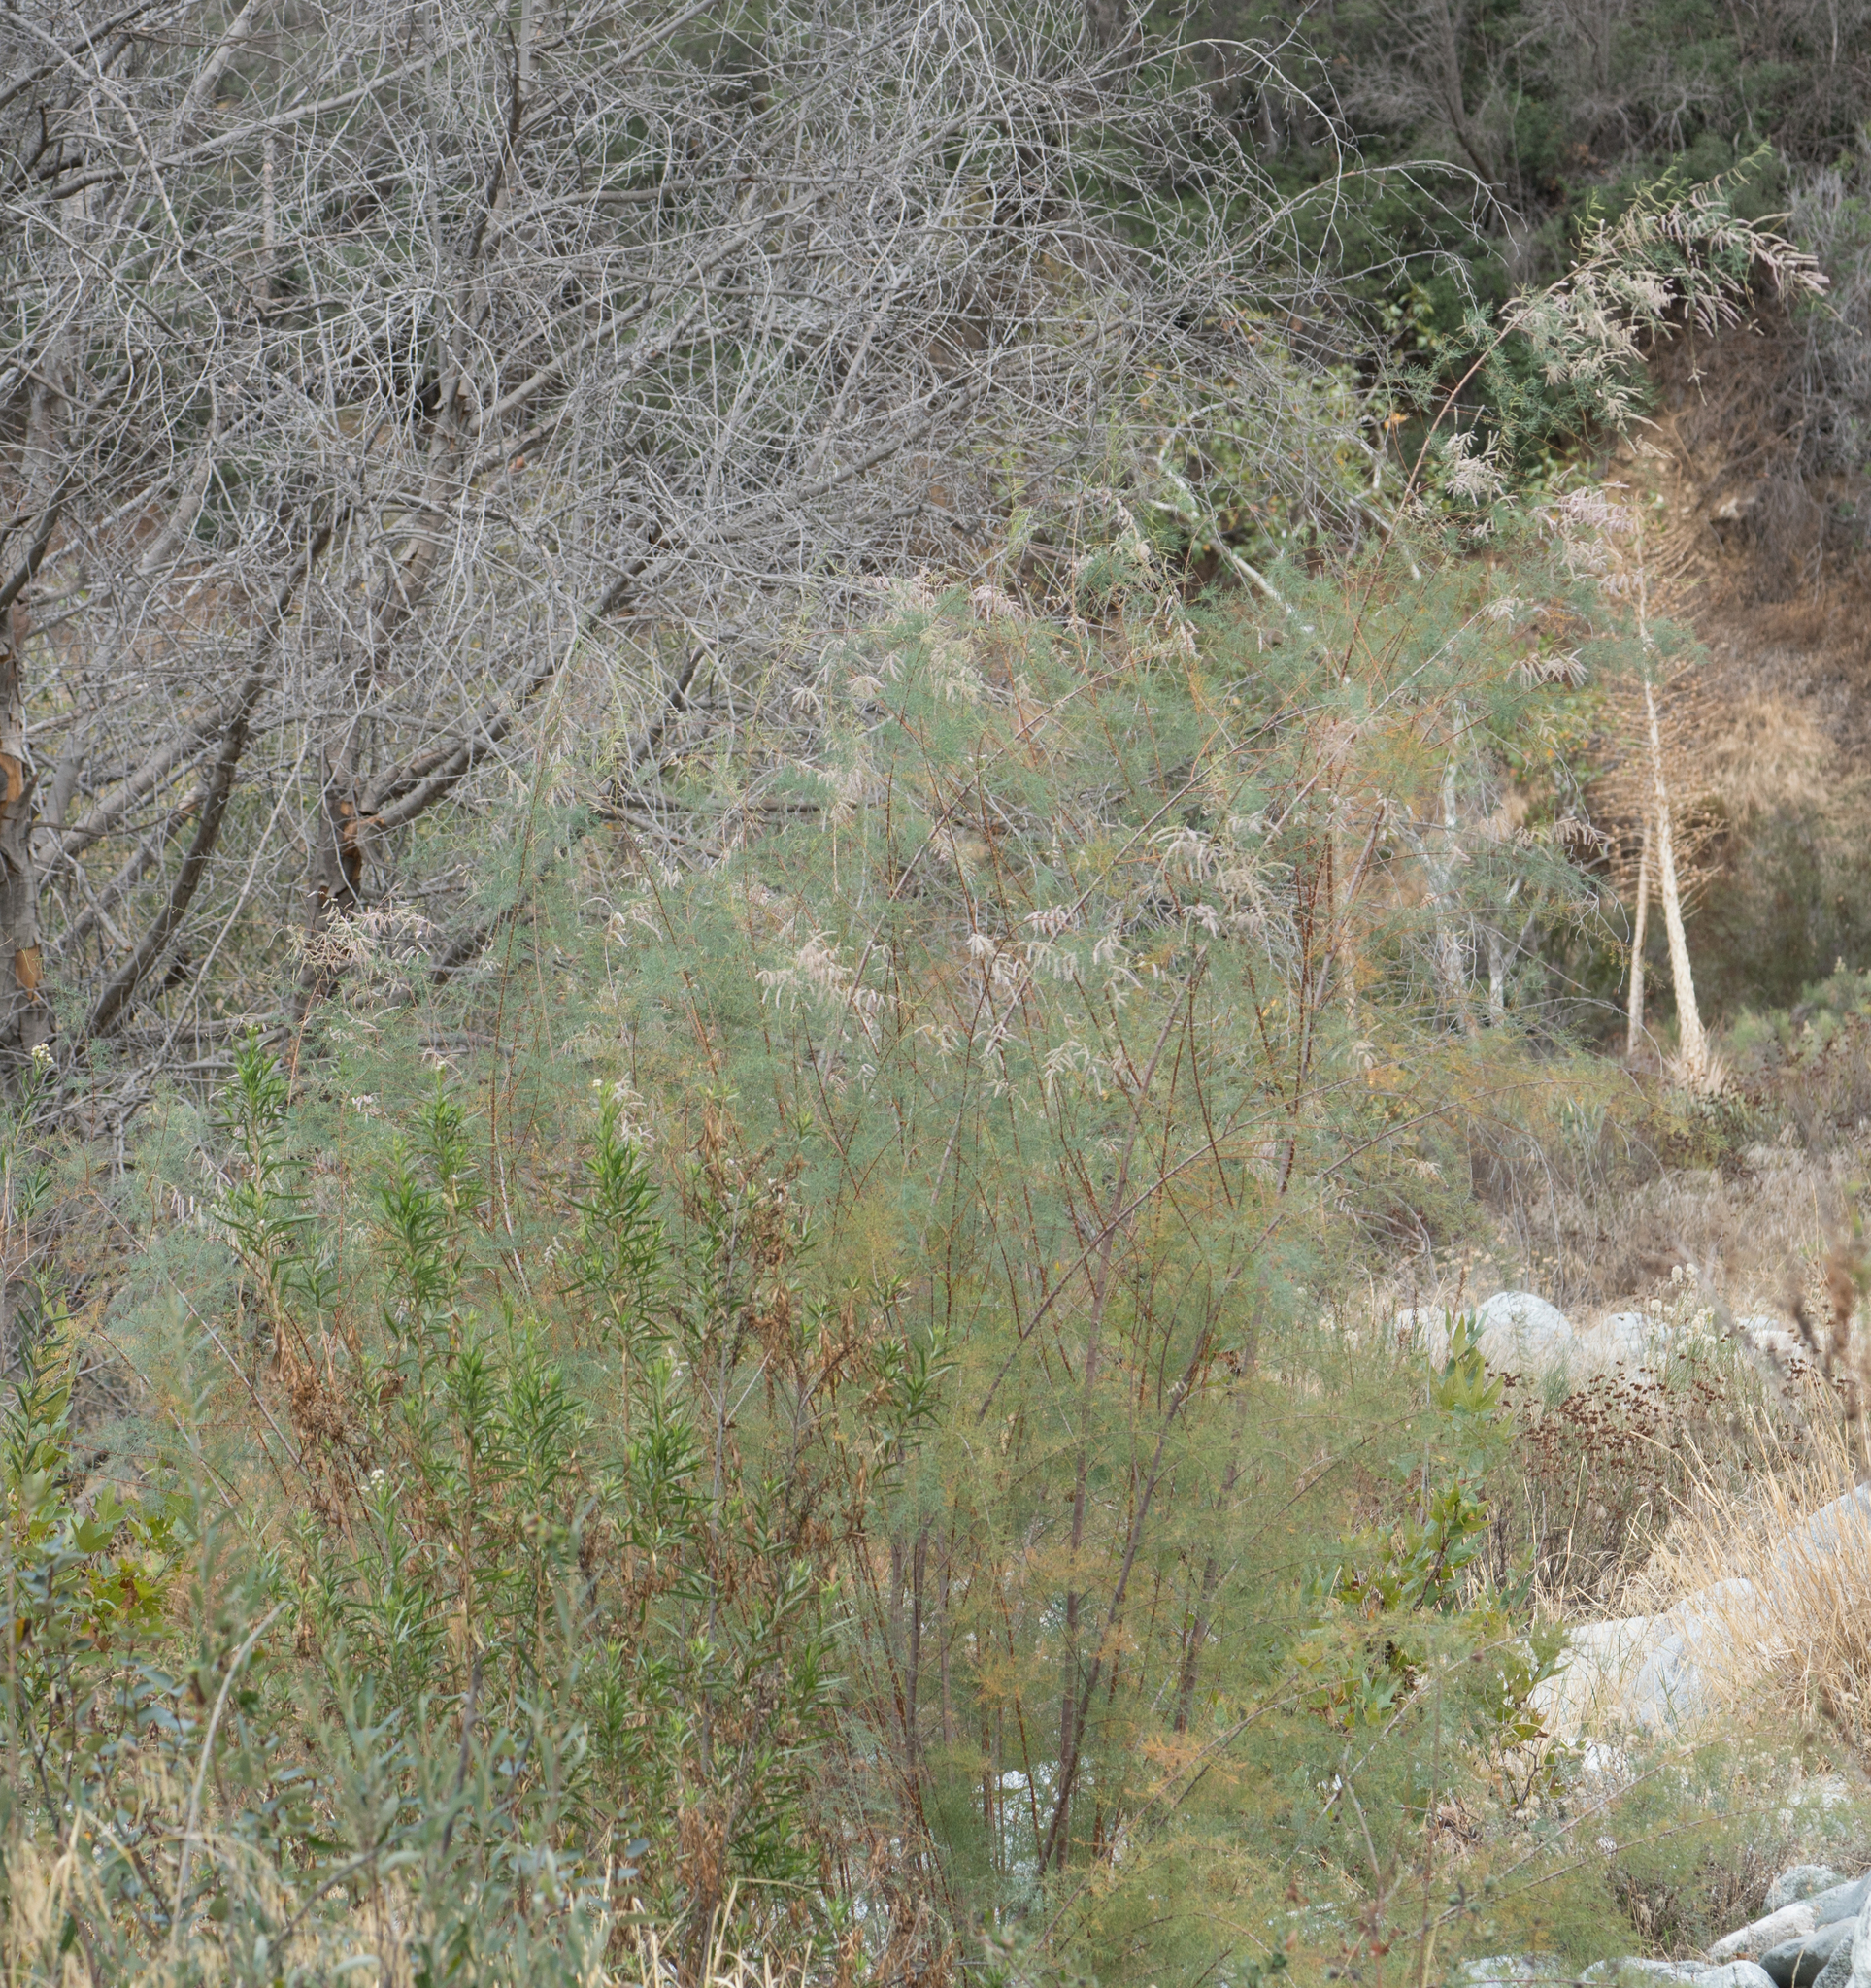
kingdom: Plantae
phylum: Tracheophyta
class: Magnoliopsida
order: Caryophyllales
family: Tamaricaceae
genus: Tamarix
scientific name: Tamarix
